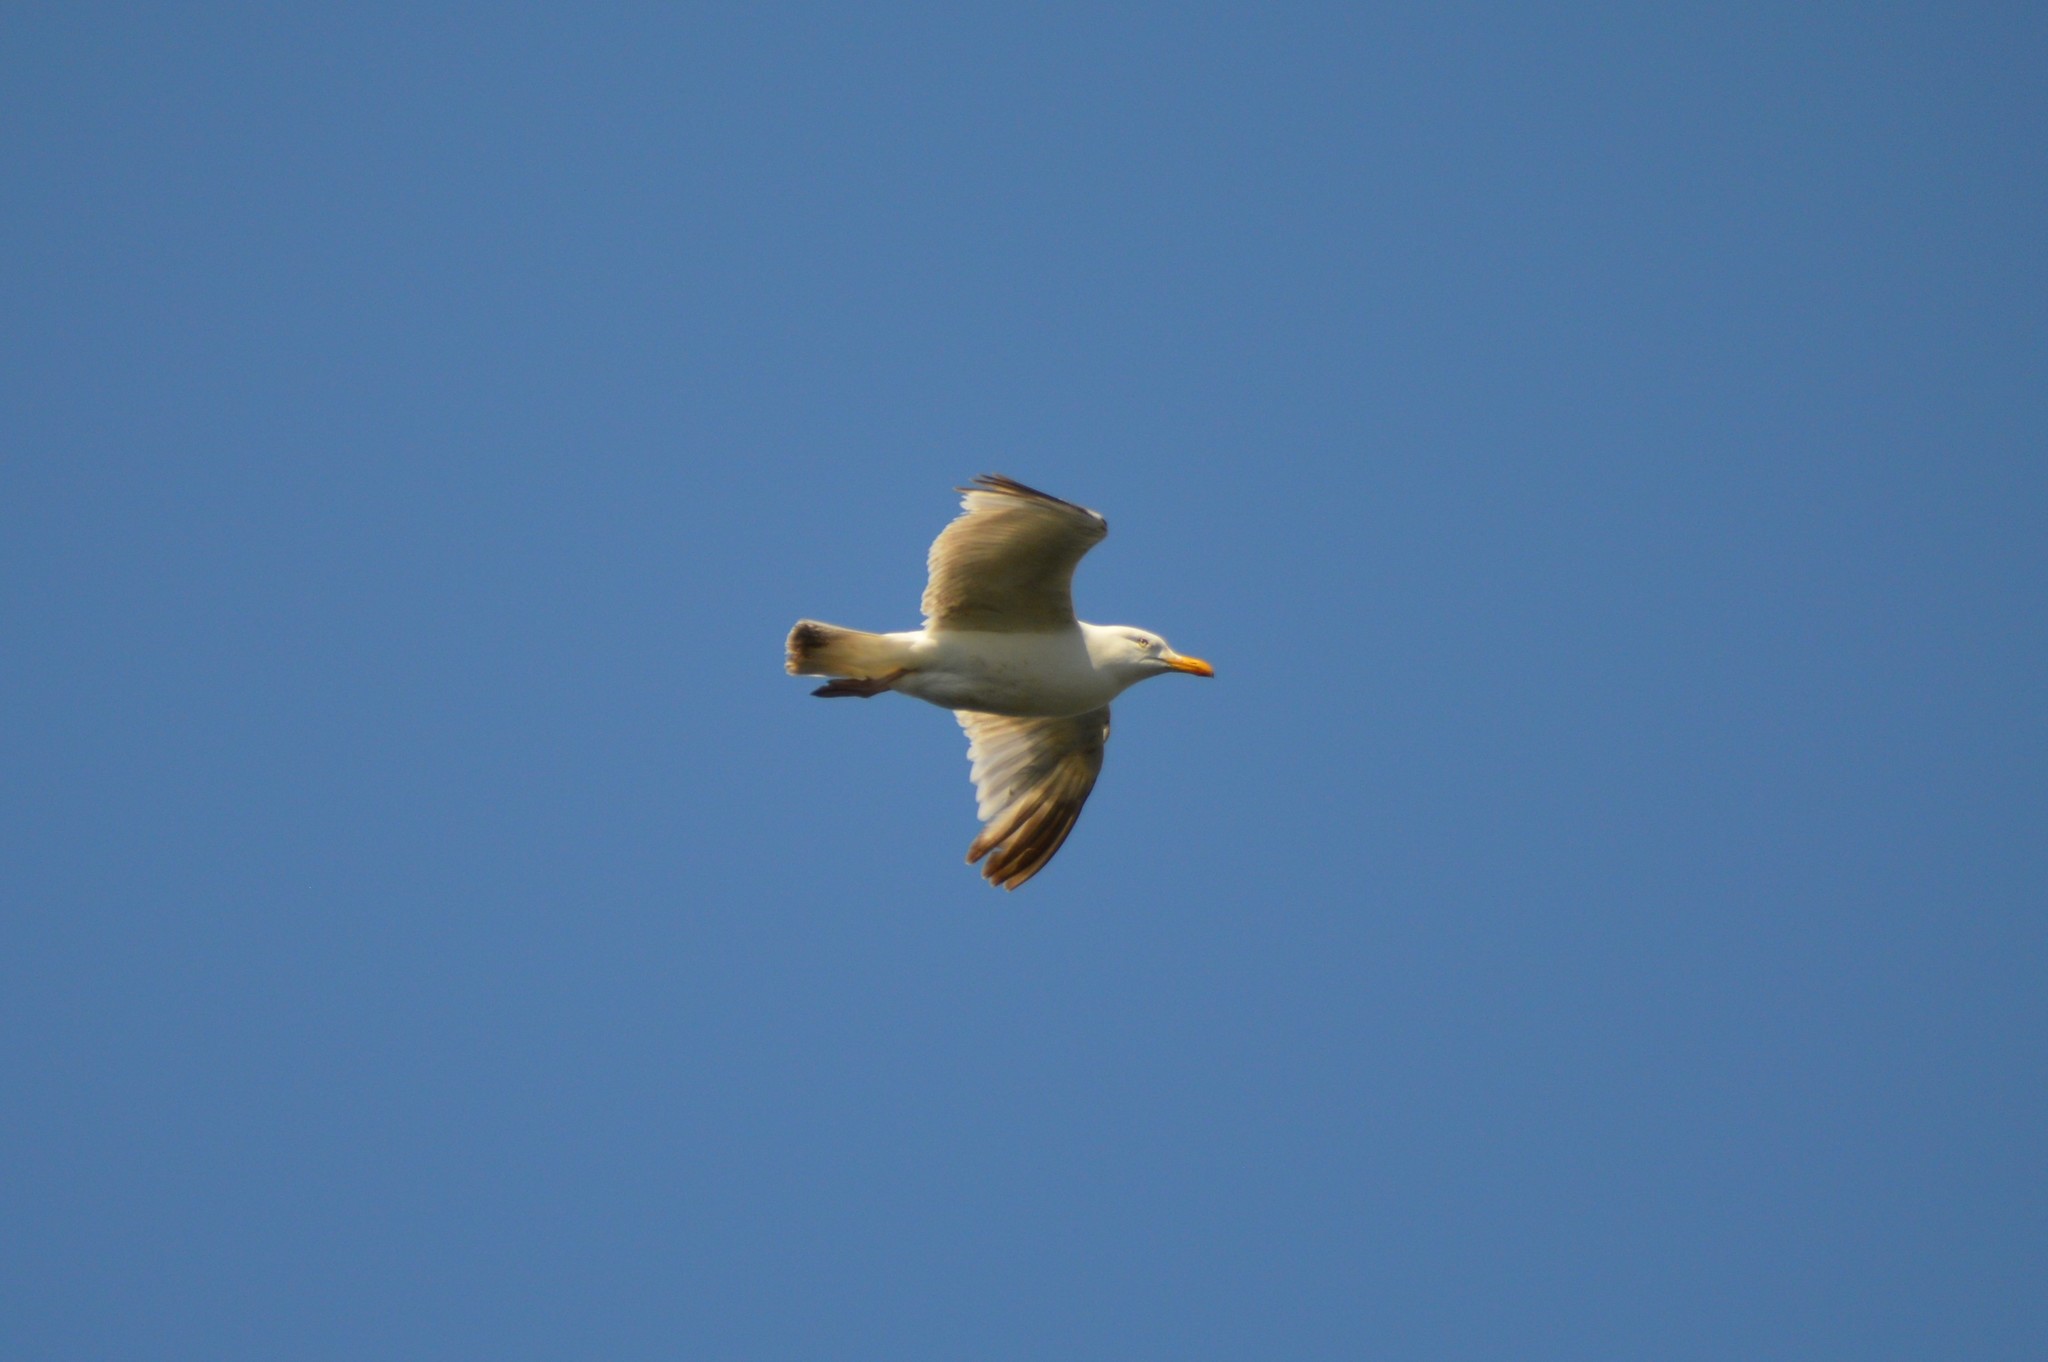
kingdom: Animalia
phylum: Chordata
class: Aves
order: Charadriiformes
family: Laridae
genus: Larus
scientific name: Larus argentatus
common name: Herring gull
